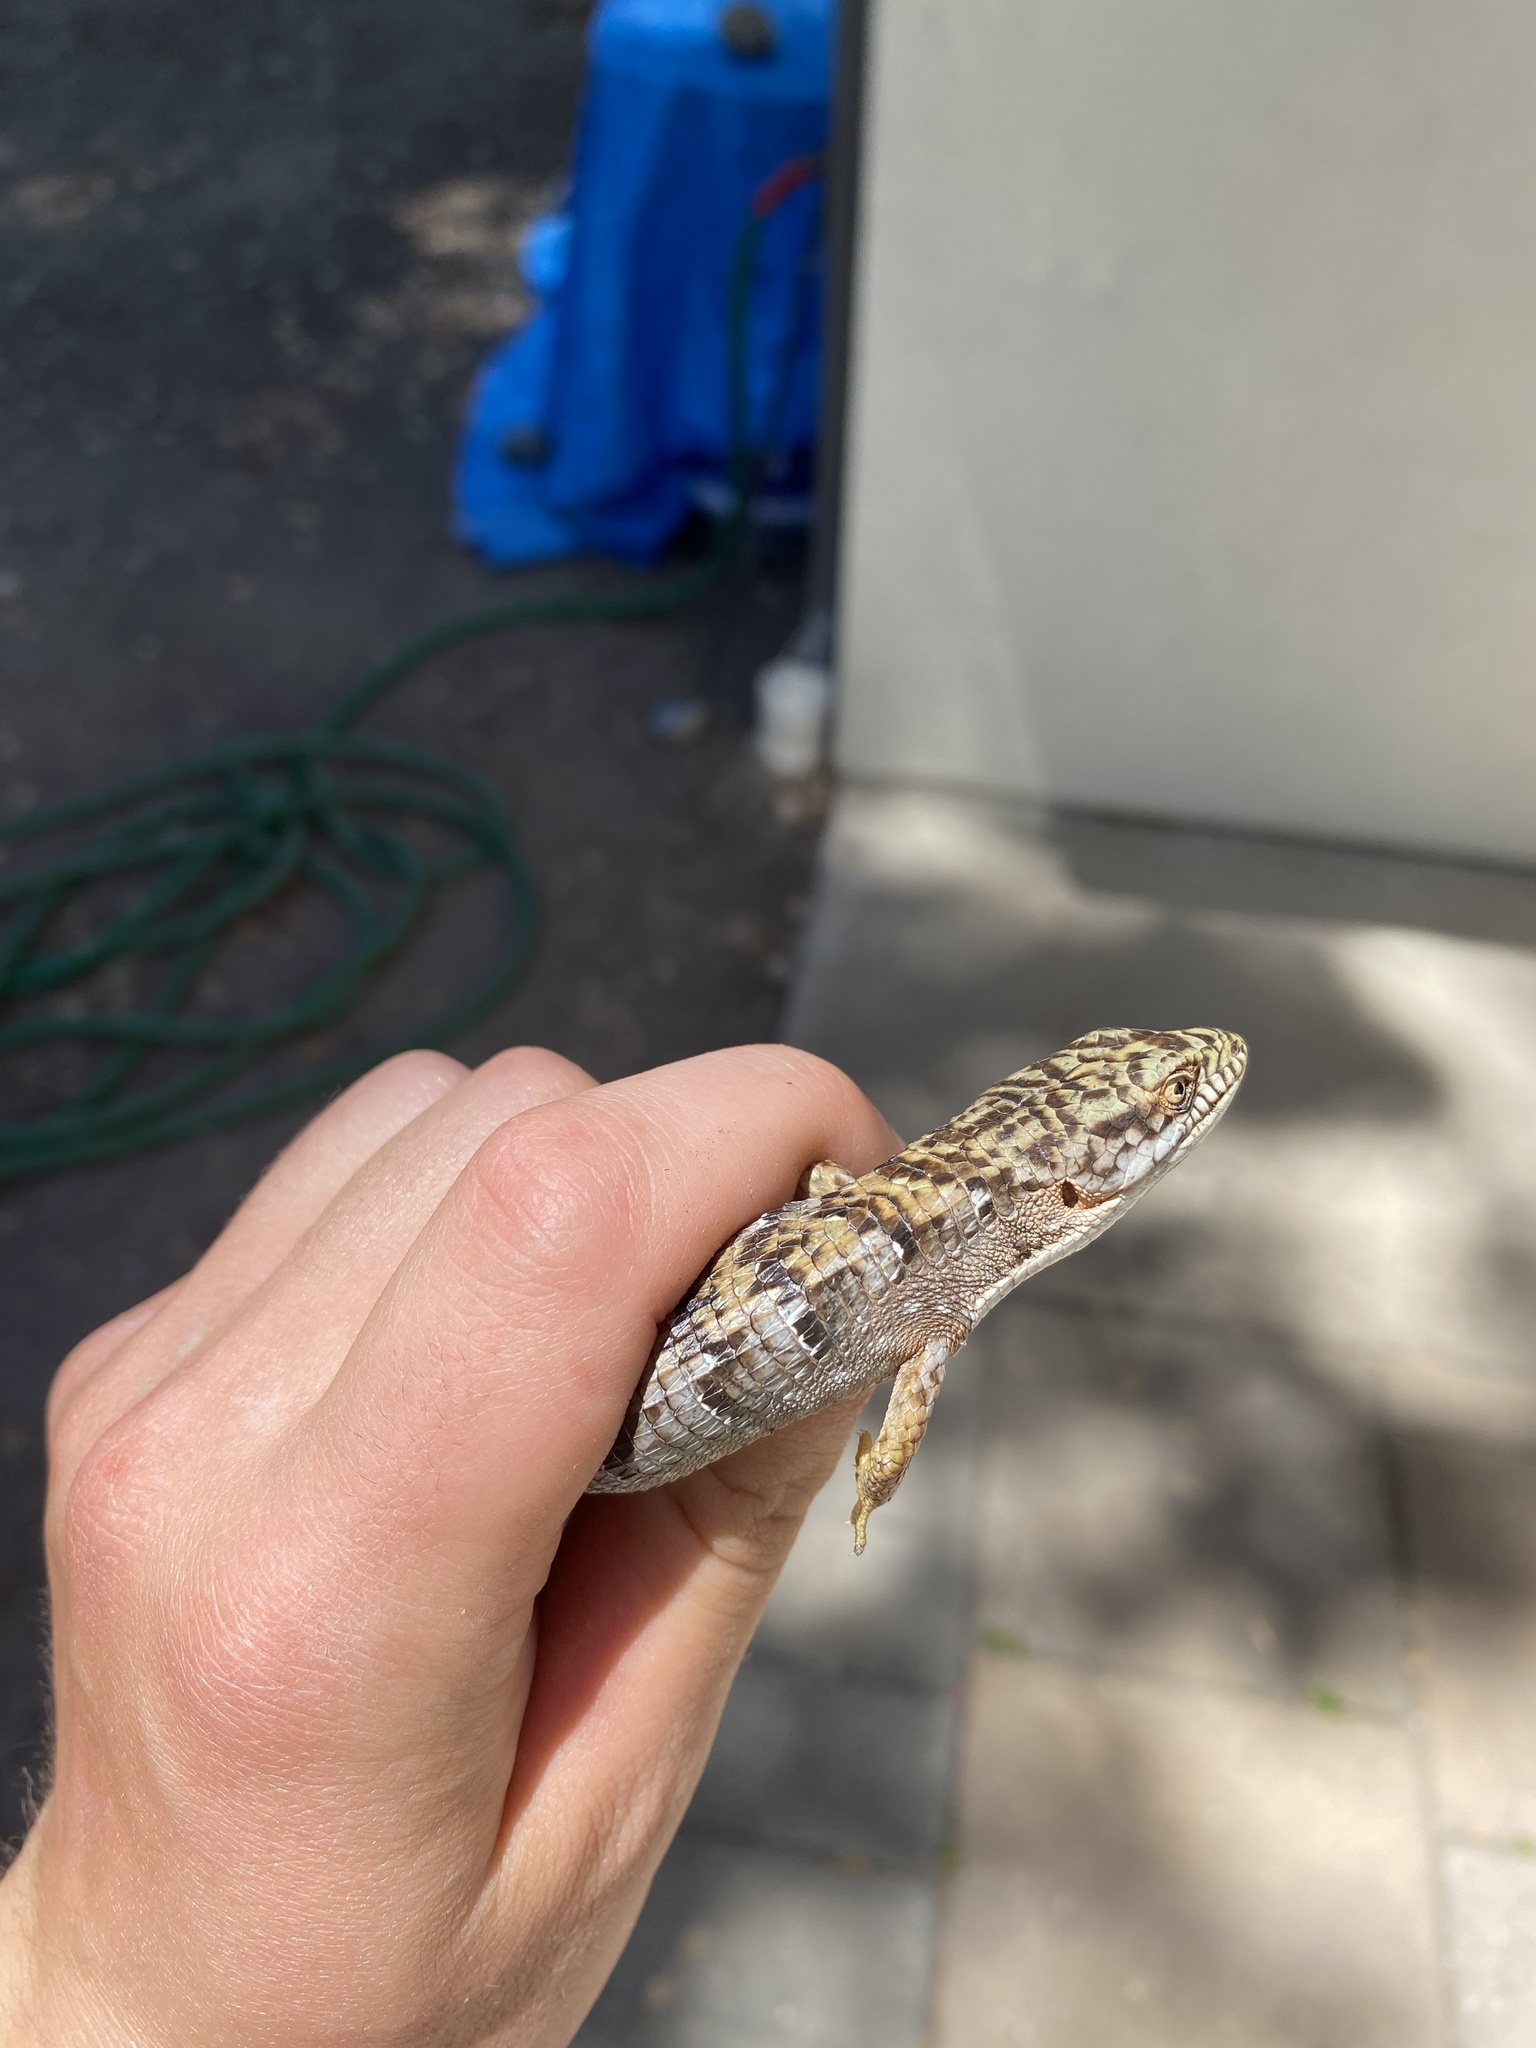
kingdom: Animalia
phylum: Chordata
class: Squamata
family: Anguidae
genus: Elgaria
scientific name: Elgaria multicarinata
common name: Southern alligator lizard
